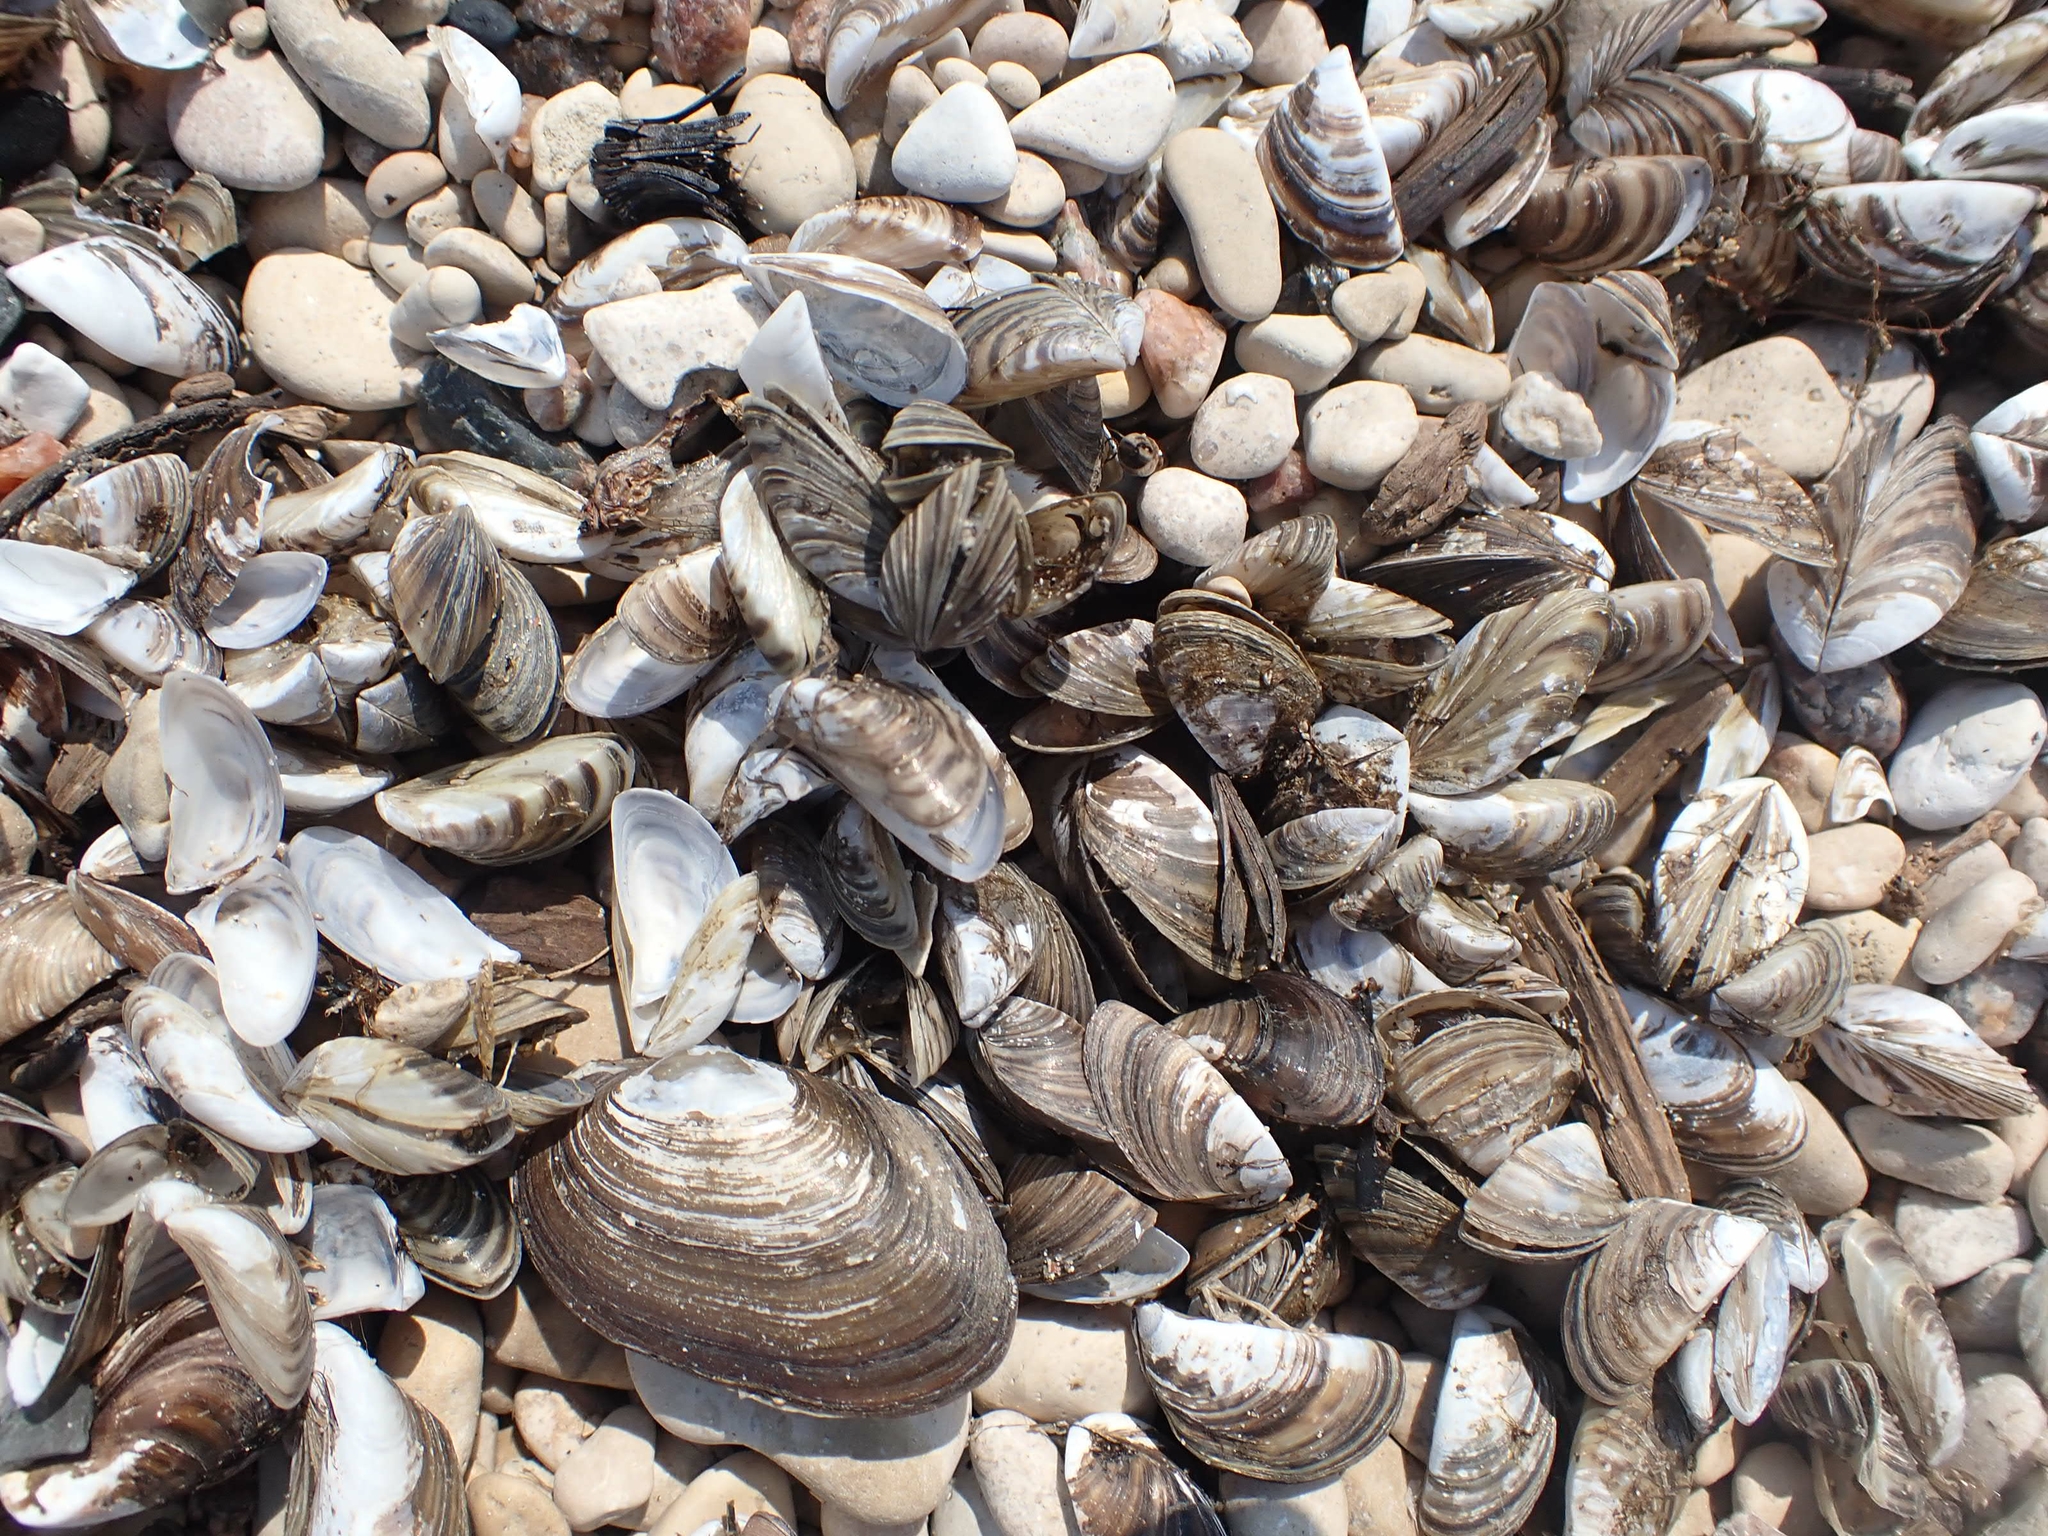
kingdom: Animalia
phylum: Mollusca
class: Bivalvia
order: Myida
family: Dreissenidae
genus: Dreissena
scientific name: Dreissena polymorpha
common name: Zebra mussel
